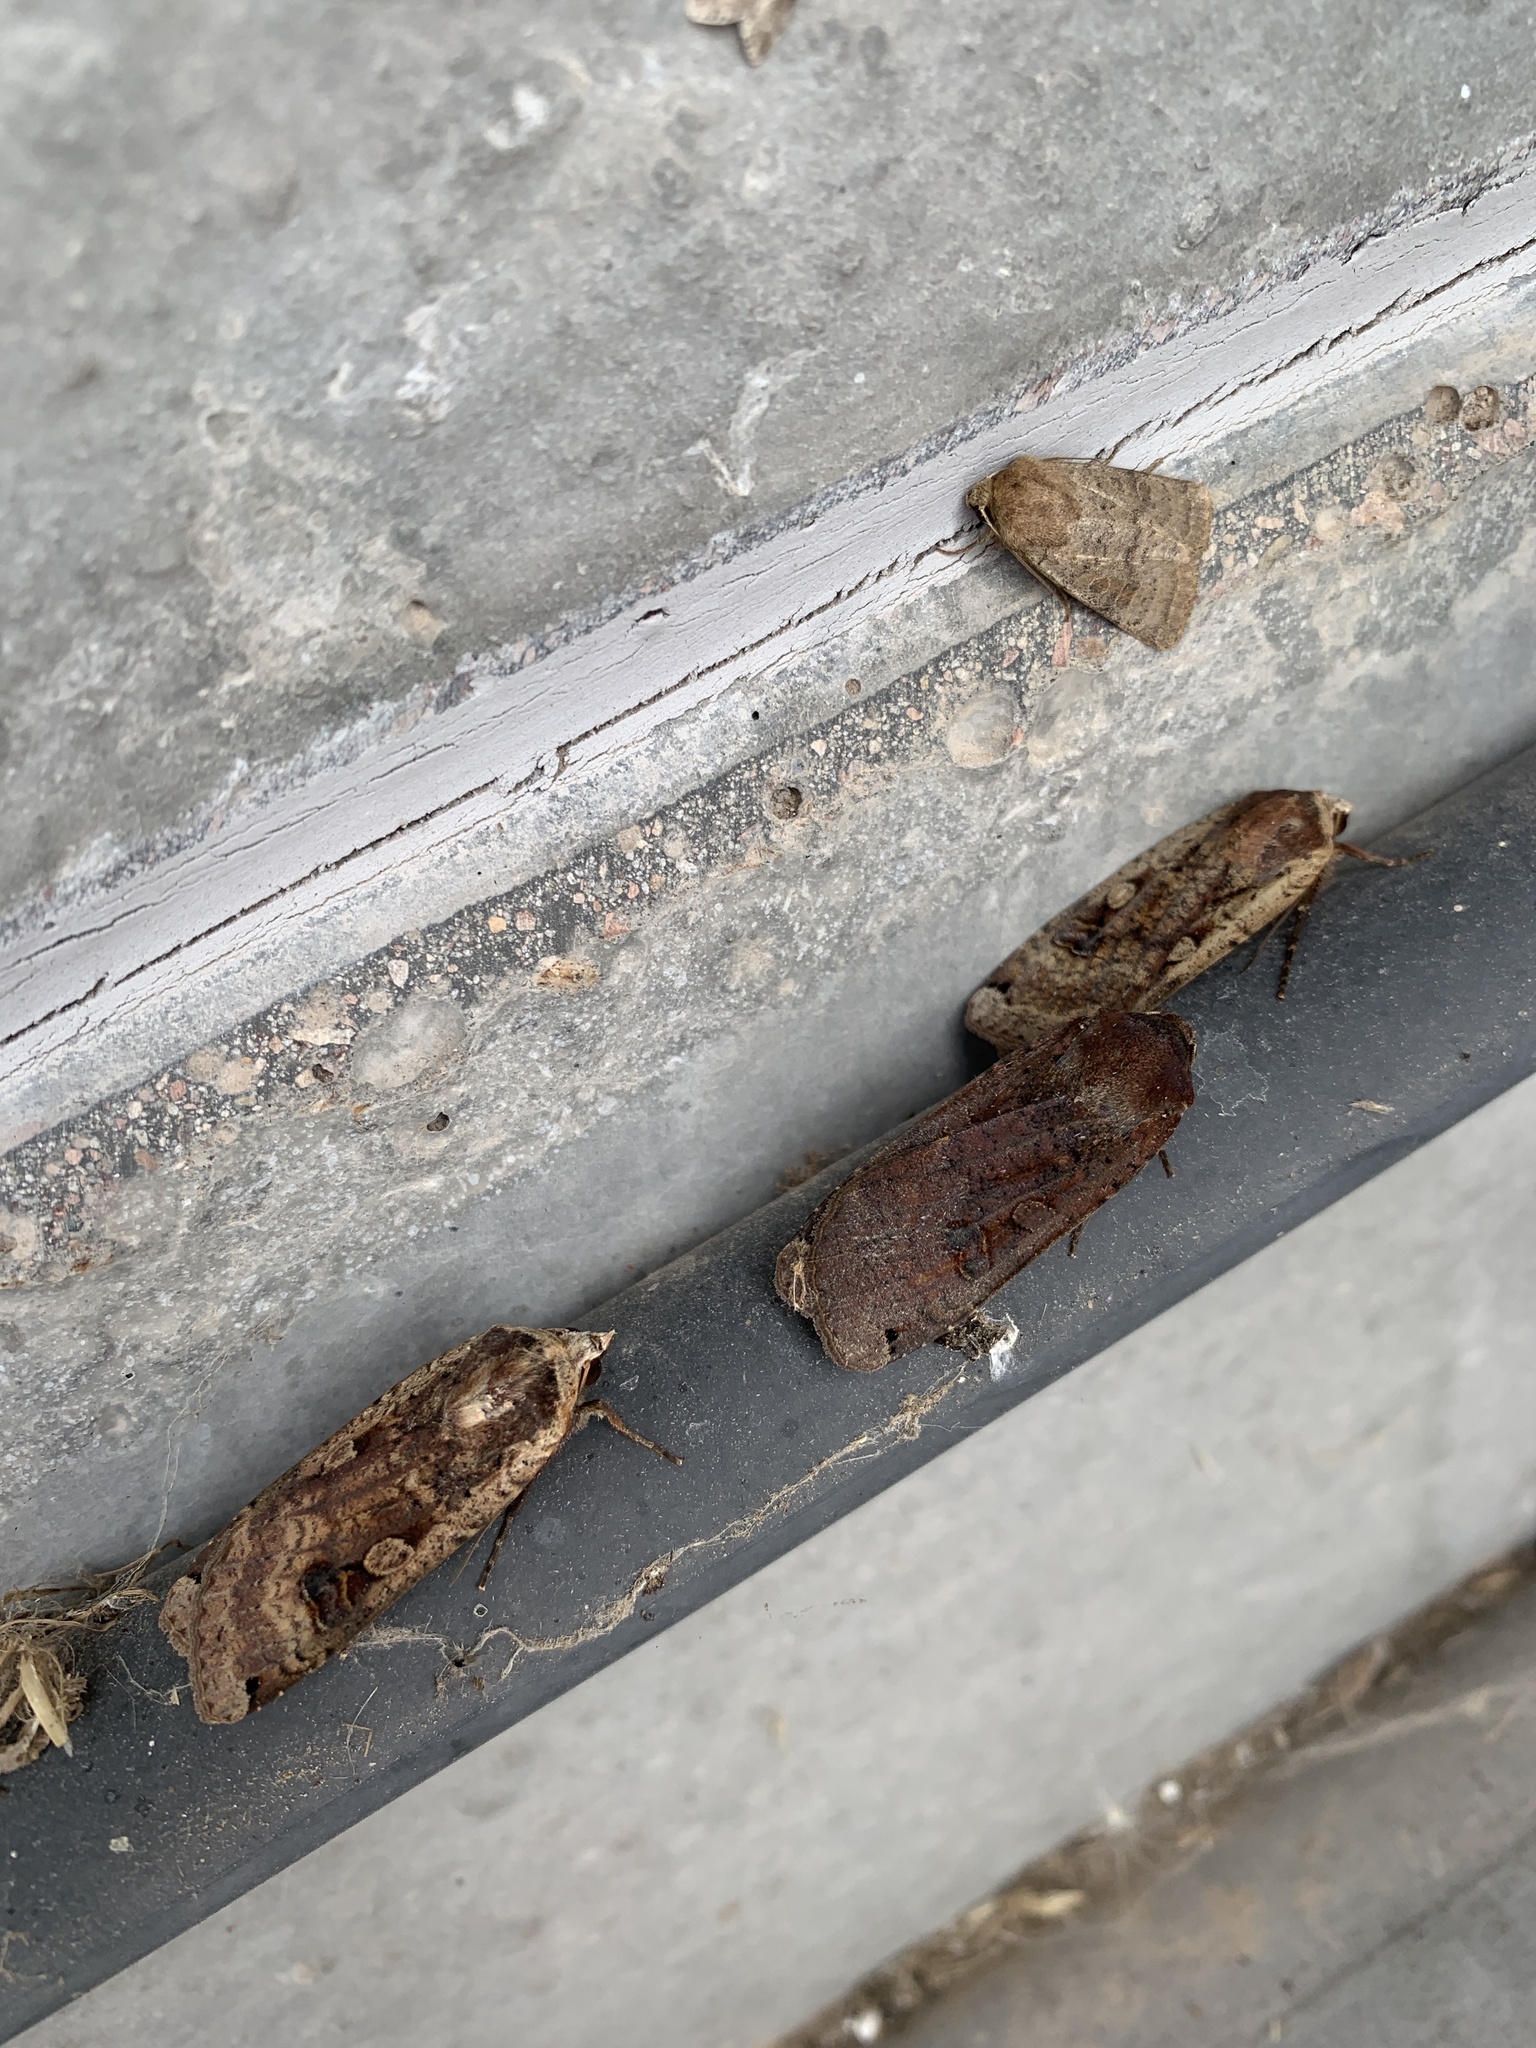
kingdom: Animalia
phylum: Arthropoda
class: Insecta
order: Lepidoptera
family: Noctuidae
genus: Noctua
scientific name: Noctua pronuba
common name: Large yellow underwing
